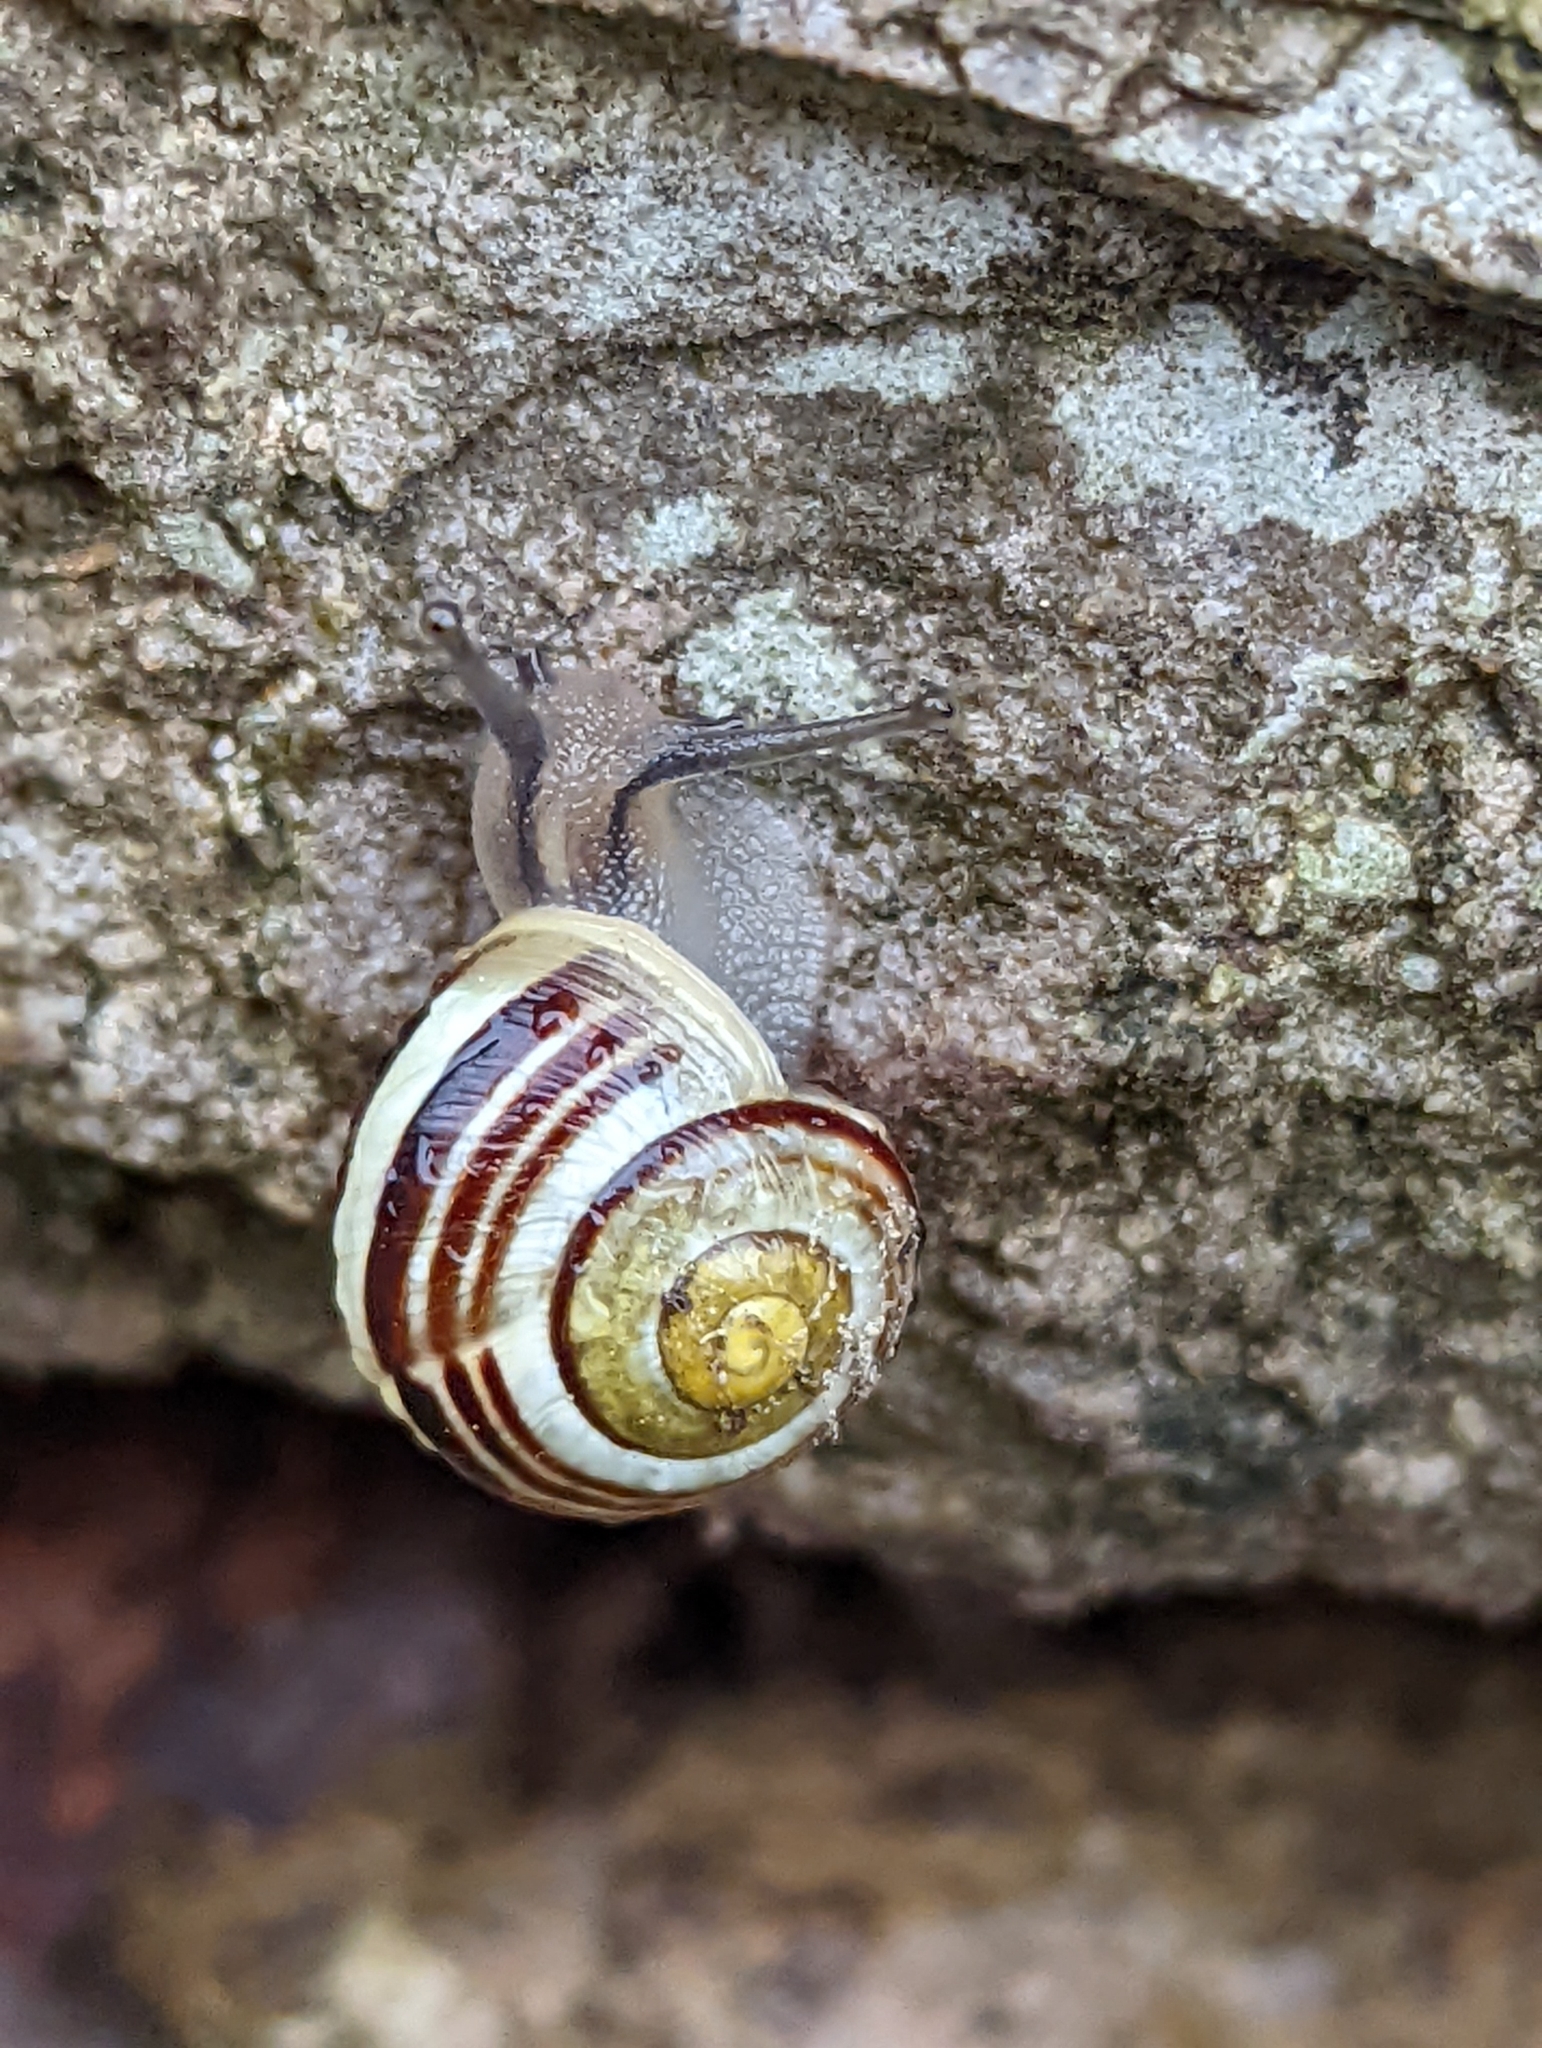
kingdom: Animalia
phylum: Mollusca
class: Gastropoda
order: Stylommatophora
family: Helicidae
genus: Cepaea
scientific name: Cepaea hortensis
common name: White-lip gardensnail
